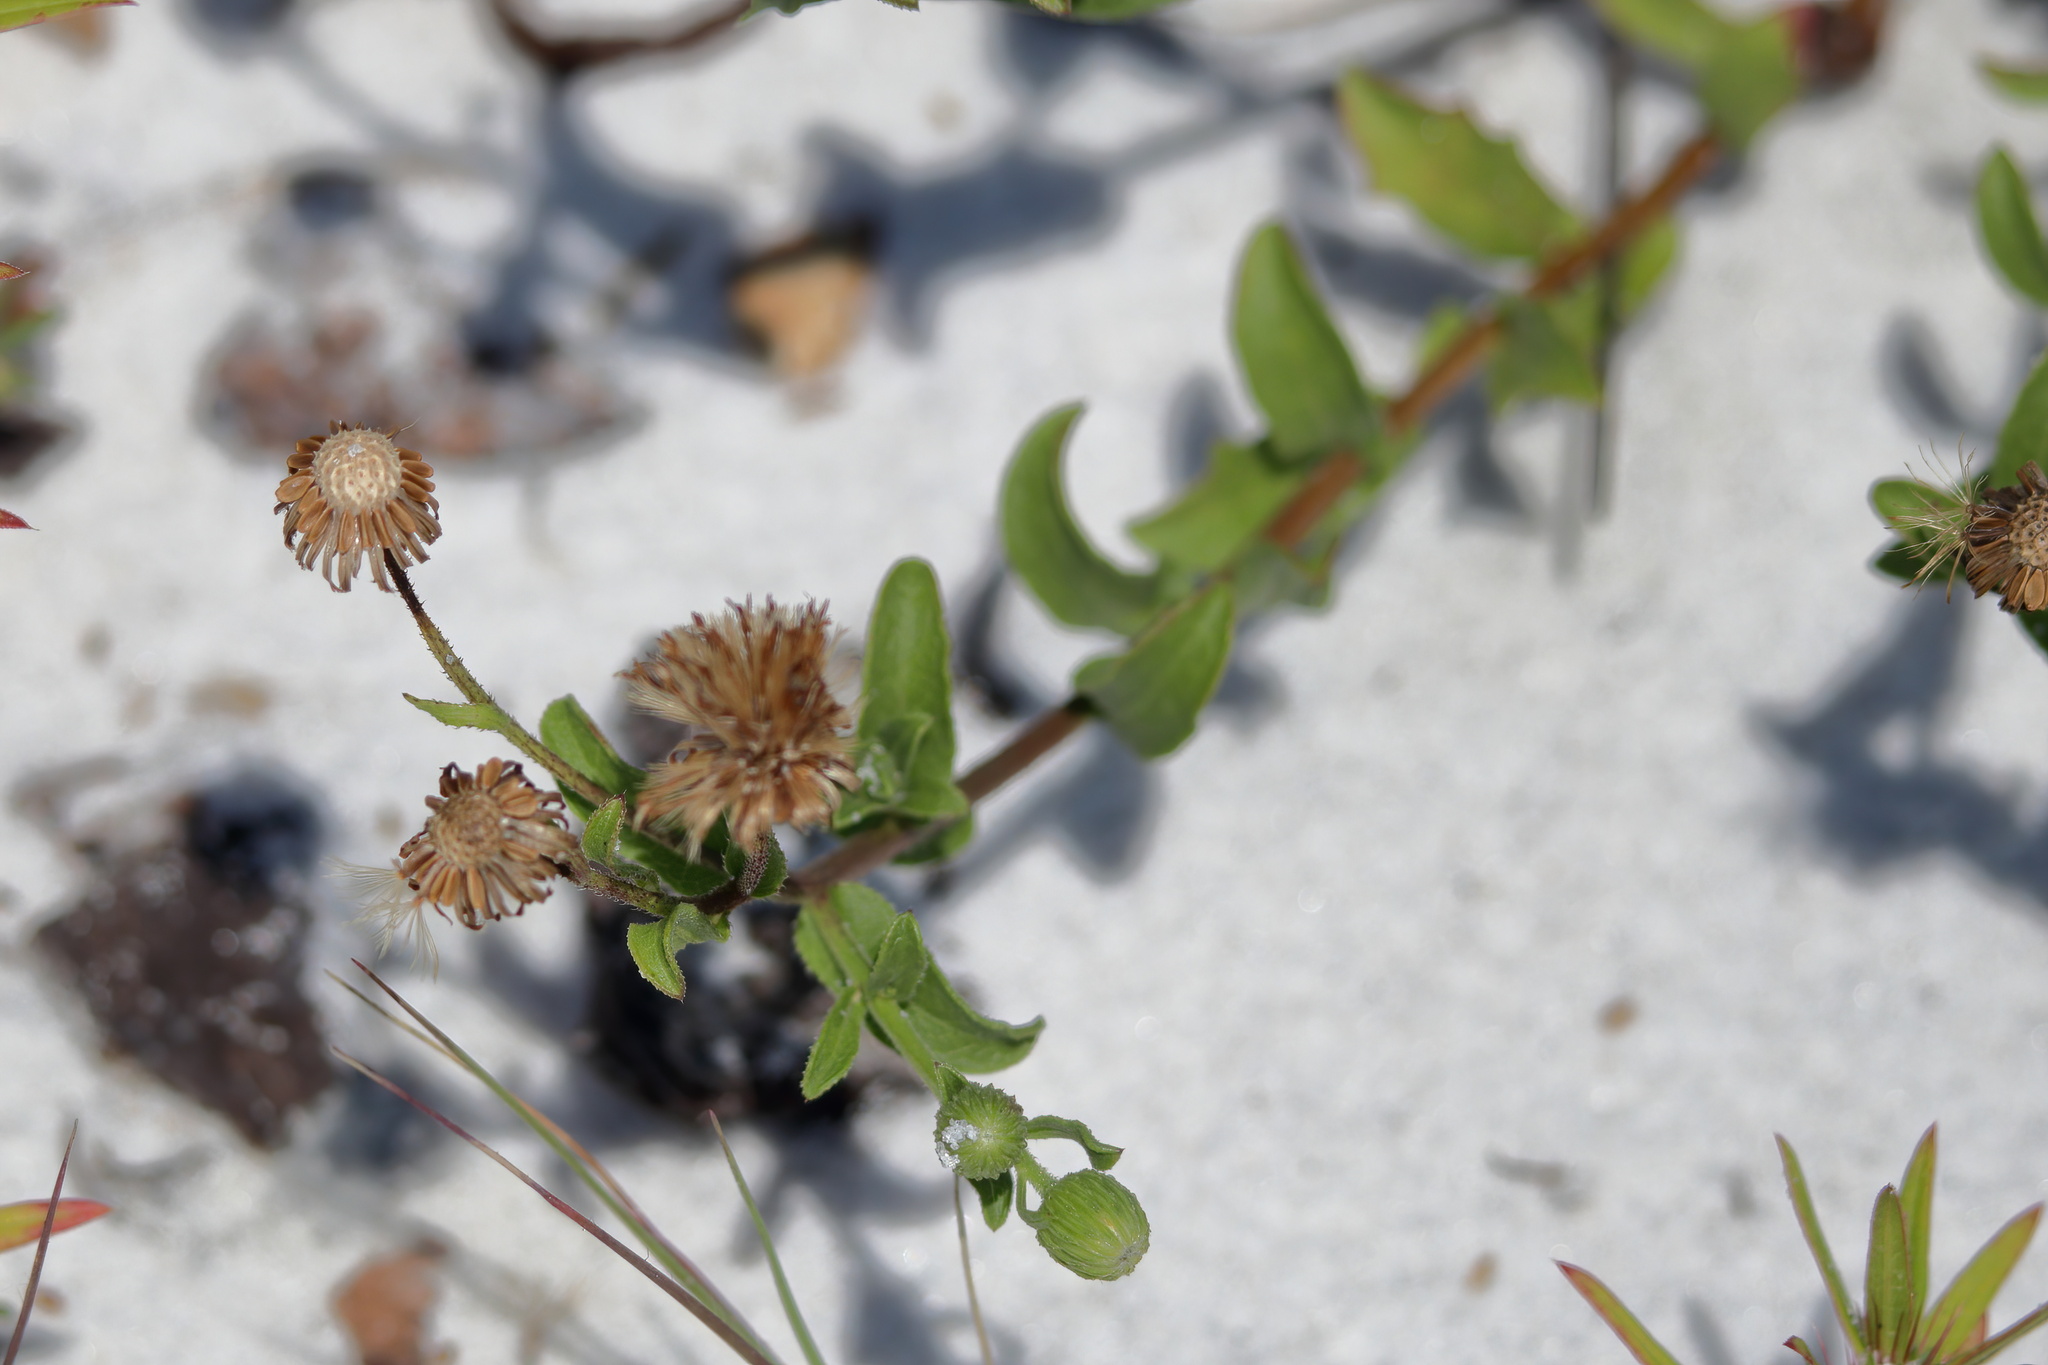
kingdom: Plantae
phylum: Tracheophyta
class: Magnoliopsida
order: Asterales
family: Asteraceae
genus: Heterotheca
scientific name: Heterotheca subaxillaris
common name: Camphorweed
